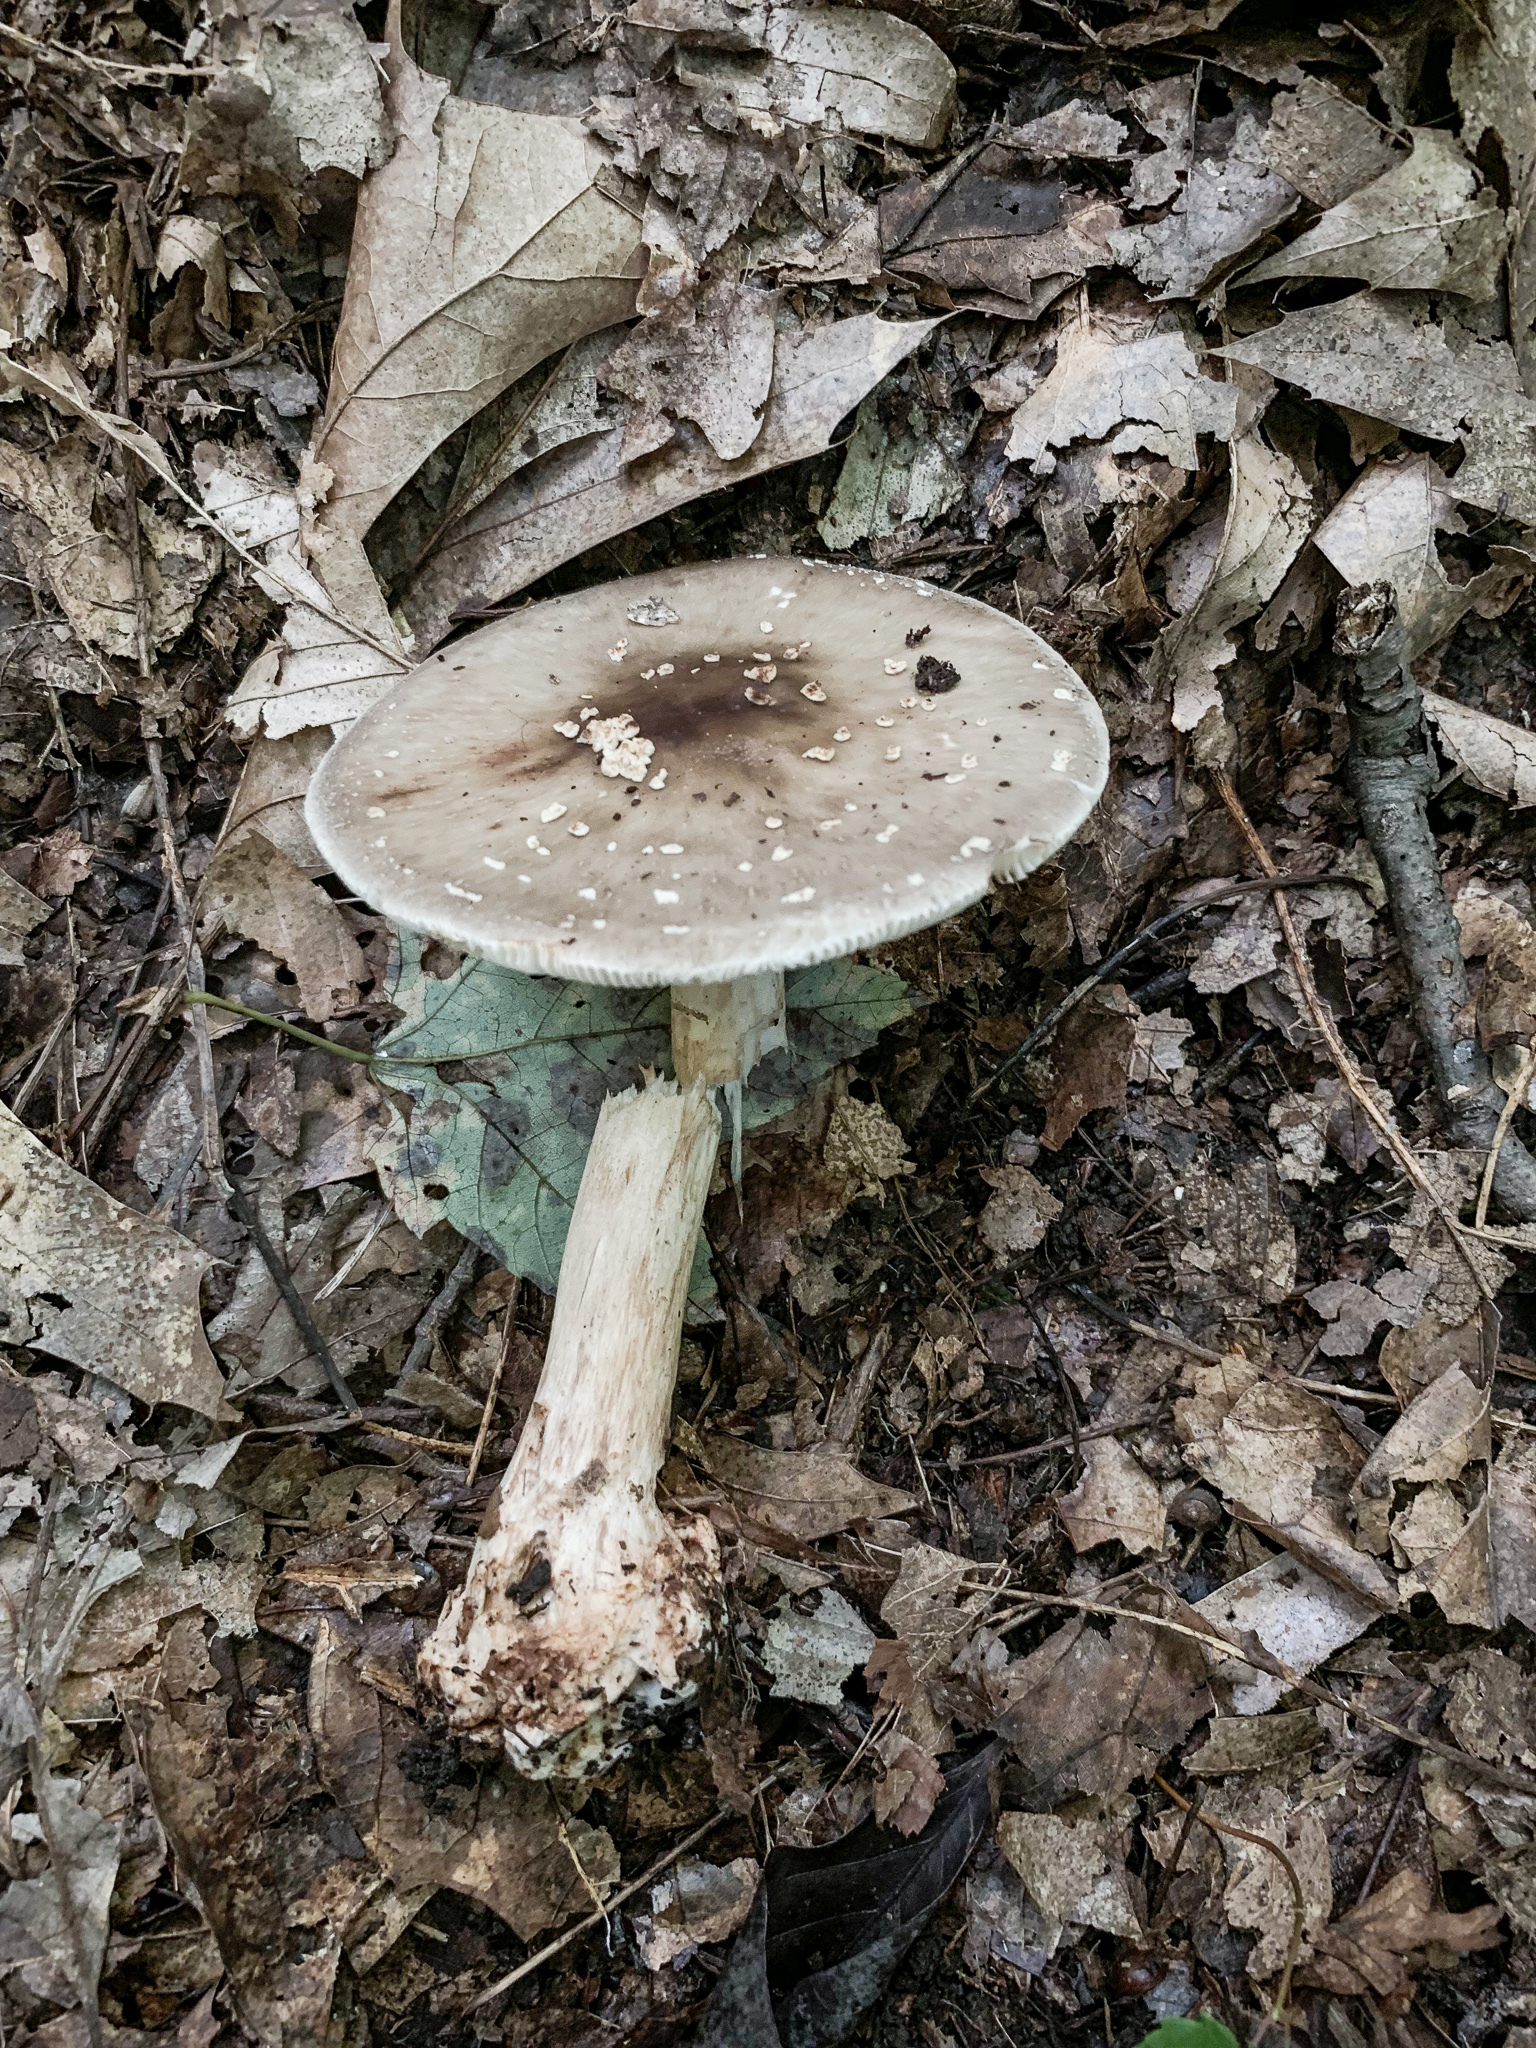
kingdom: Fungi
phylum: Basidiomycota
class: Agaricomycetes
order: Agaricales
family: Amanitaceae
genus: Amanita
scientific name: Amanita brunnescens
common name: Brown american star-footed amanita
